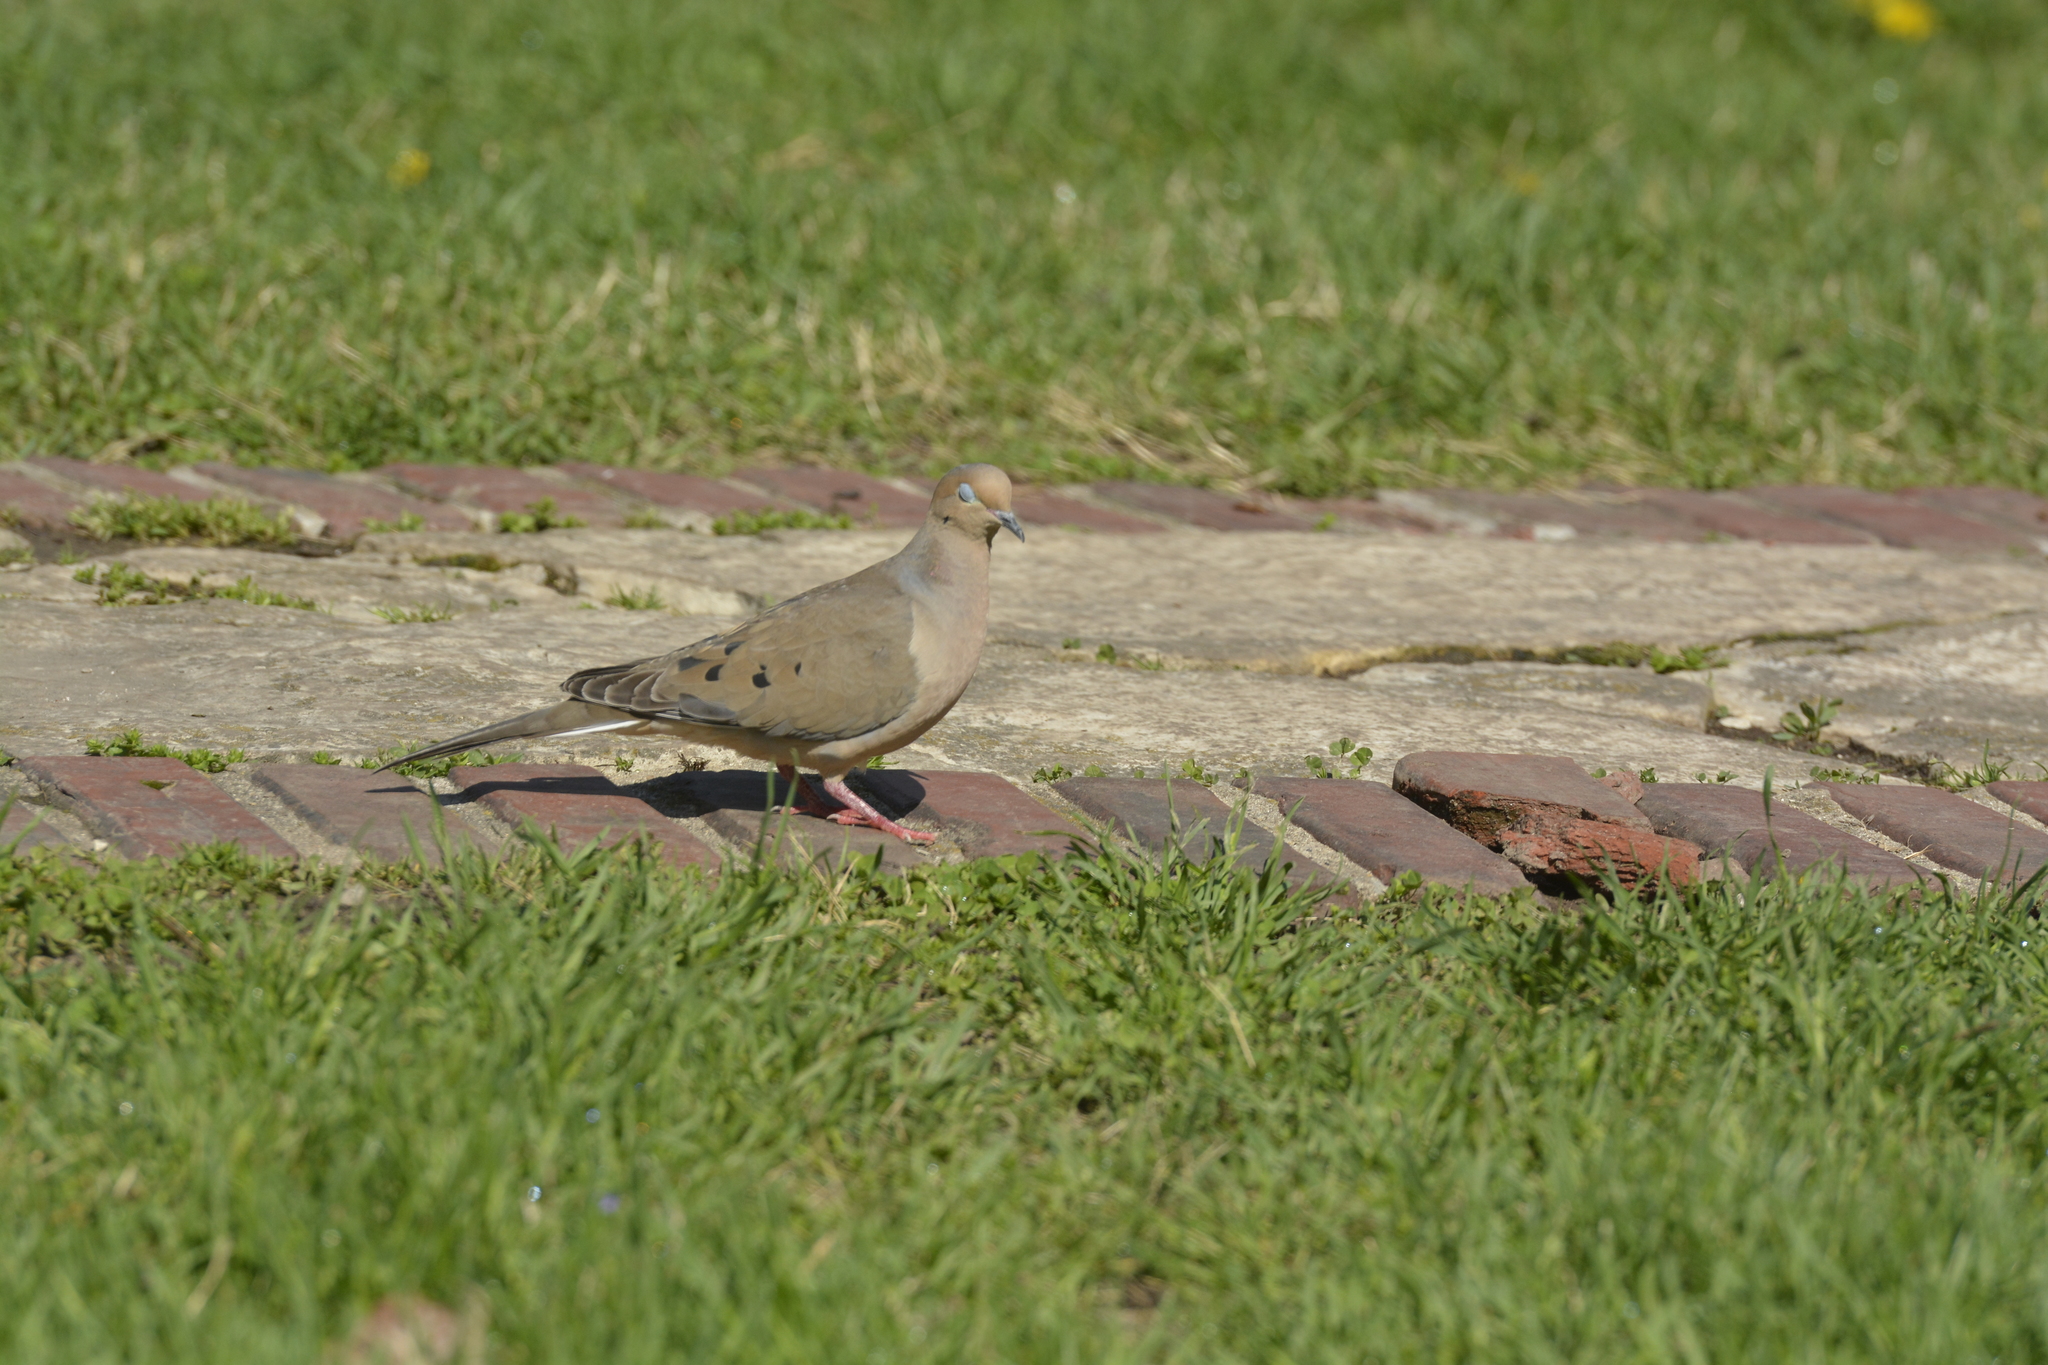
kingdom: Animalia
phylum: Chordata
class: Aves
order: Columbiformes
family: Columbidae
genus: Zenaida
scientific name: Zenaida macroura
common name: Mourning dove
